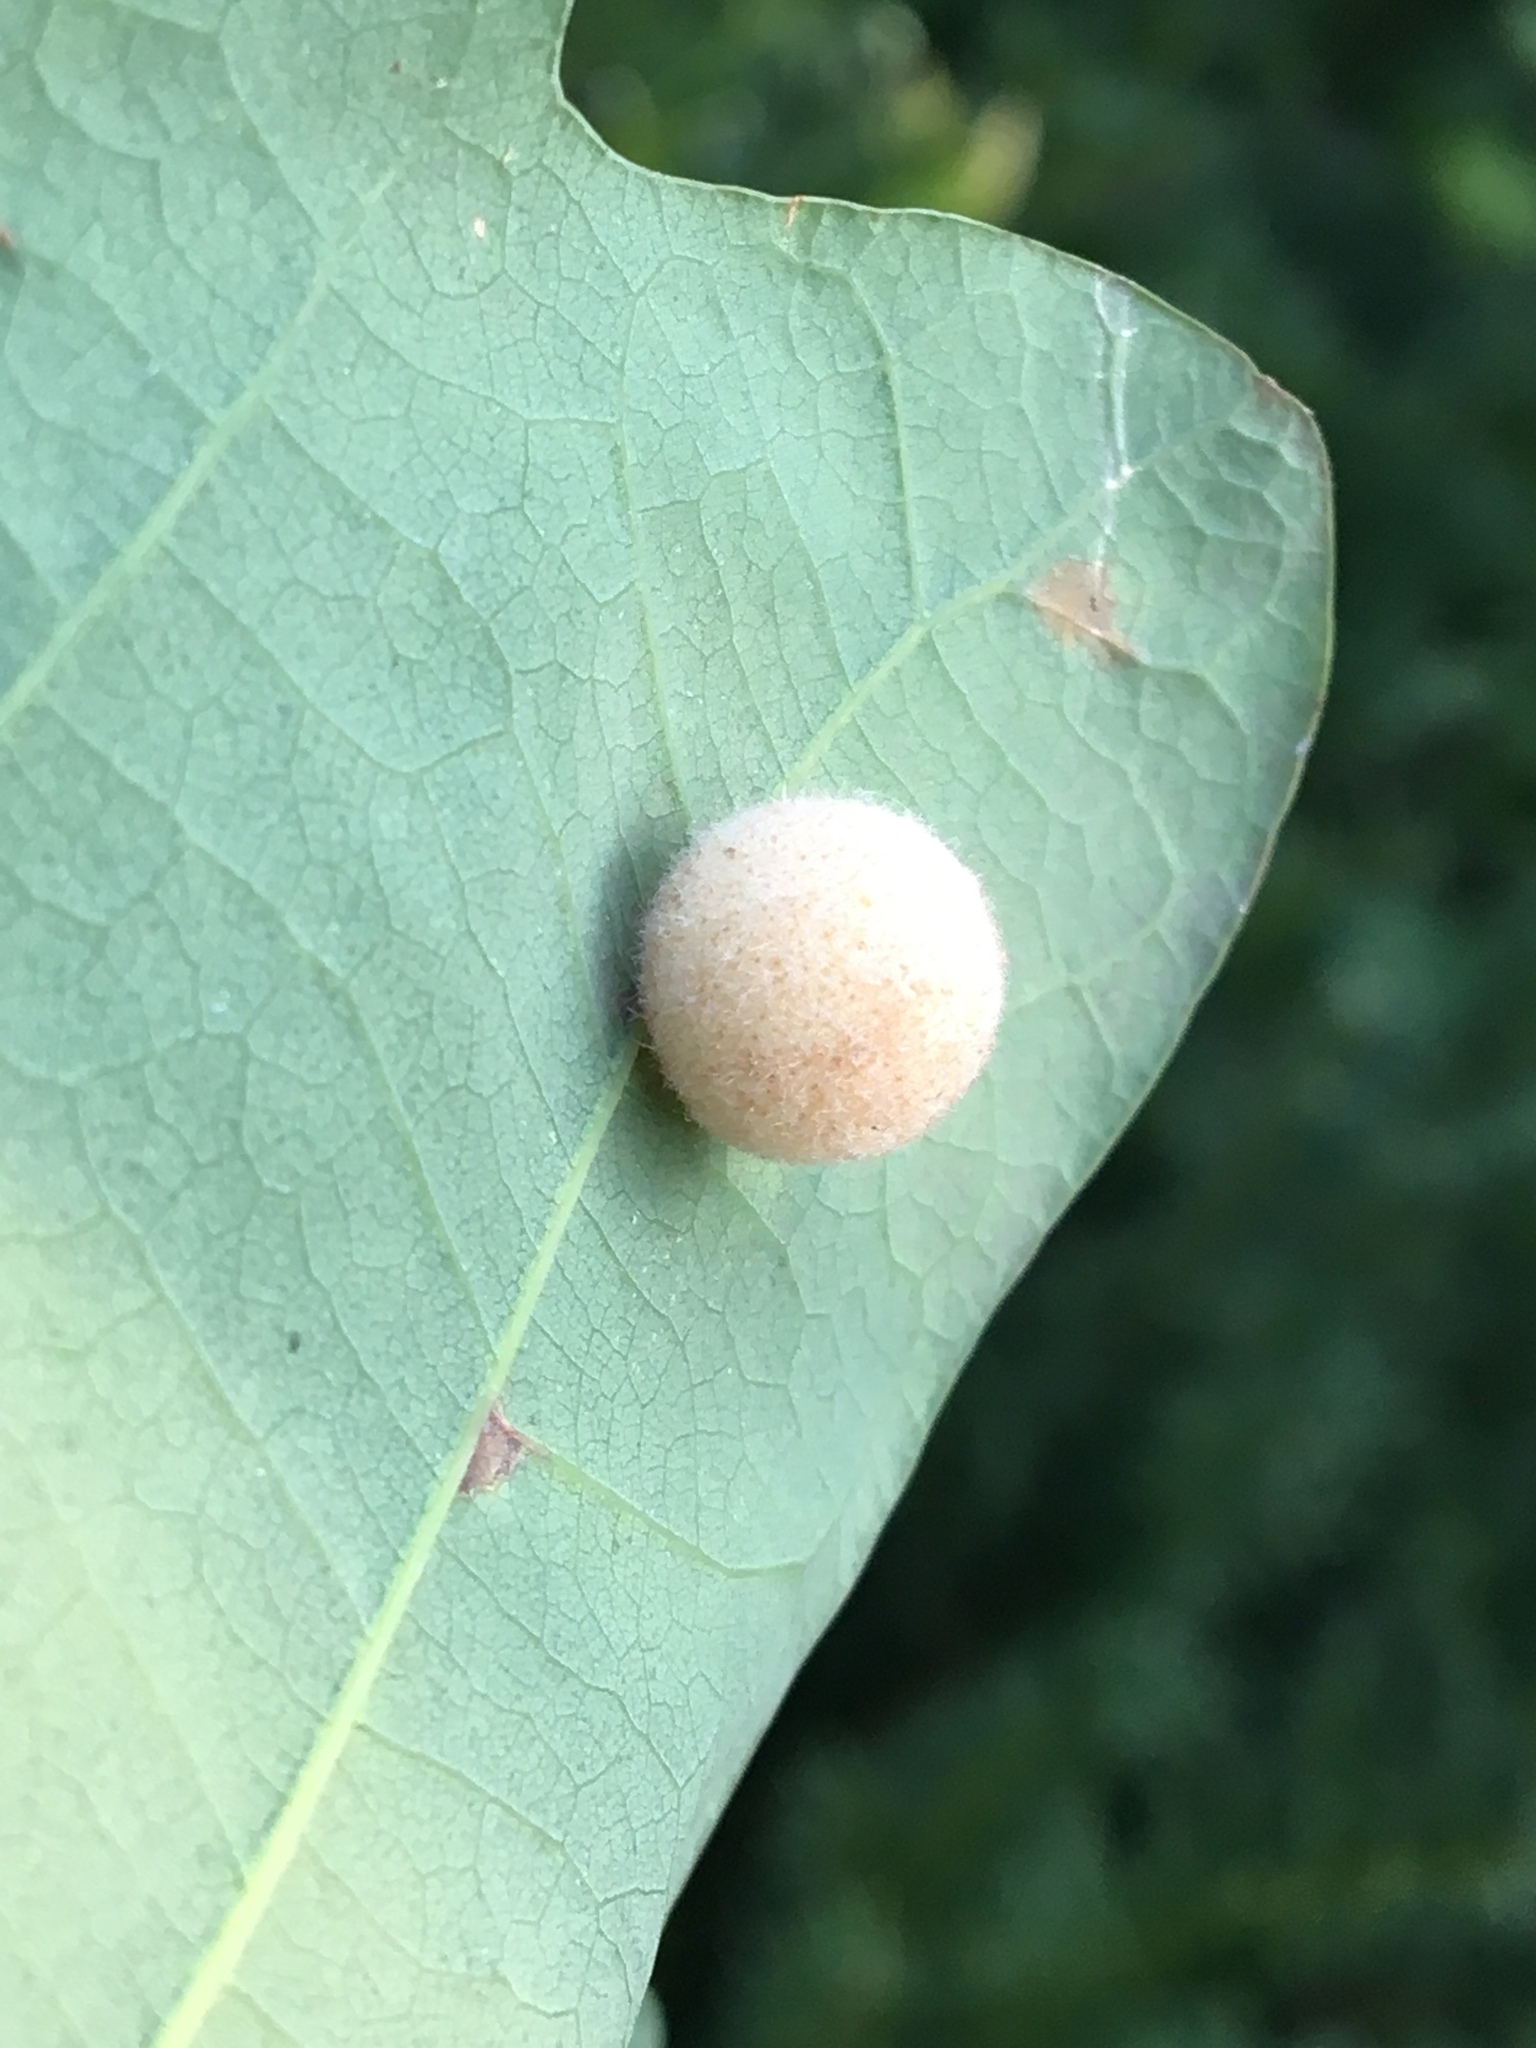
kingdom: Animalia
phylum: Arthropoda
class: Insecta
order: Hymenoptera
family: Cynipidae
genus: Philonix
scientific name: Philonix fulvicollis
